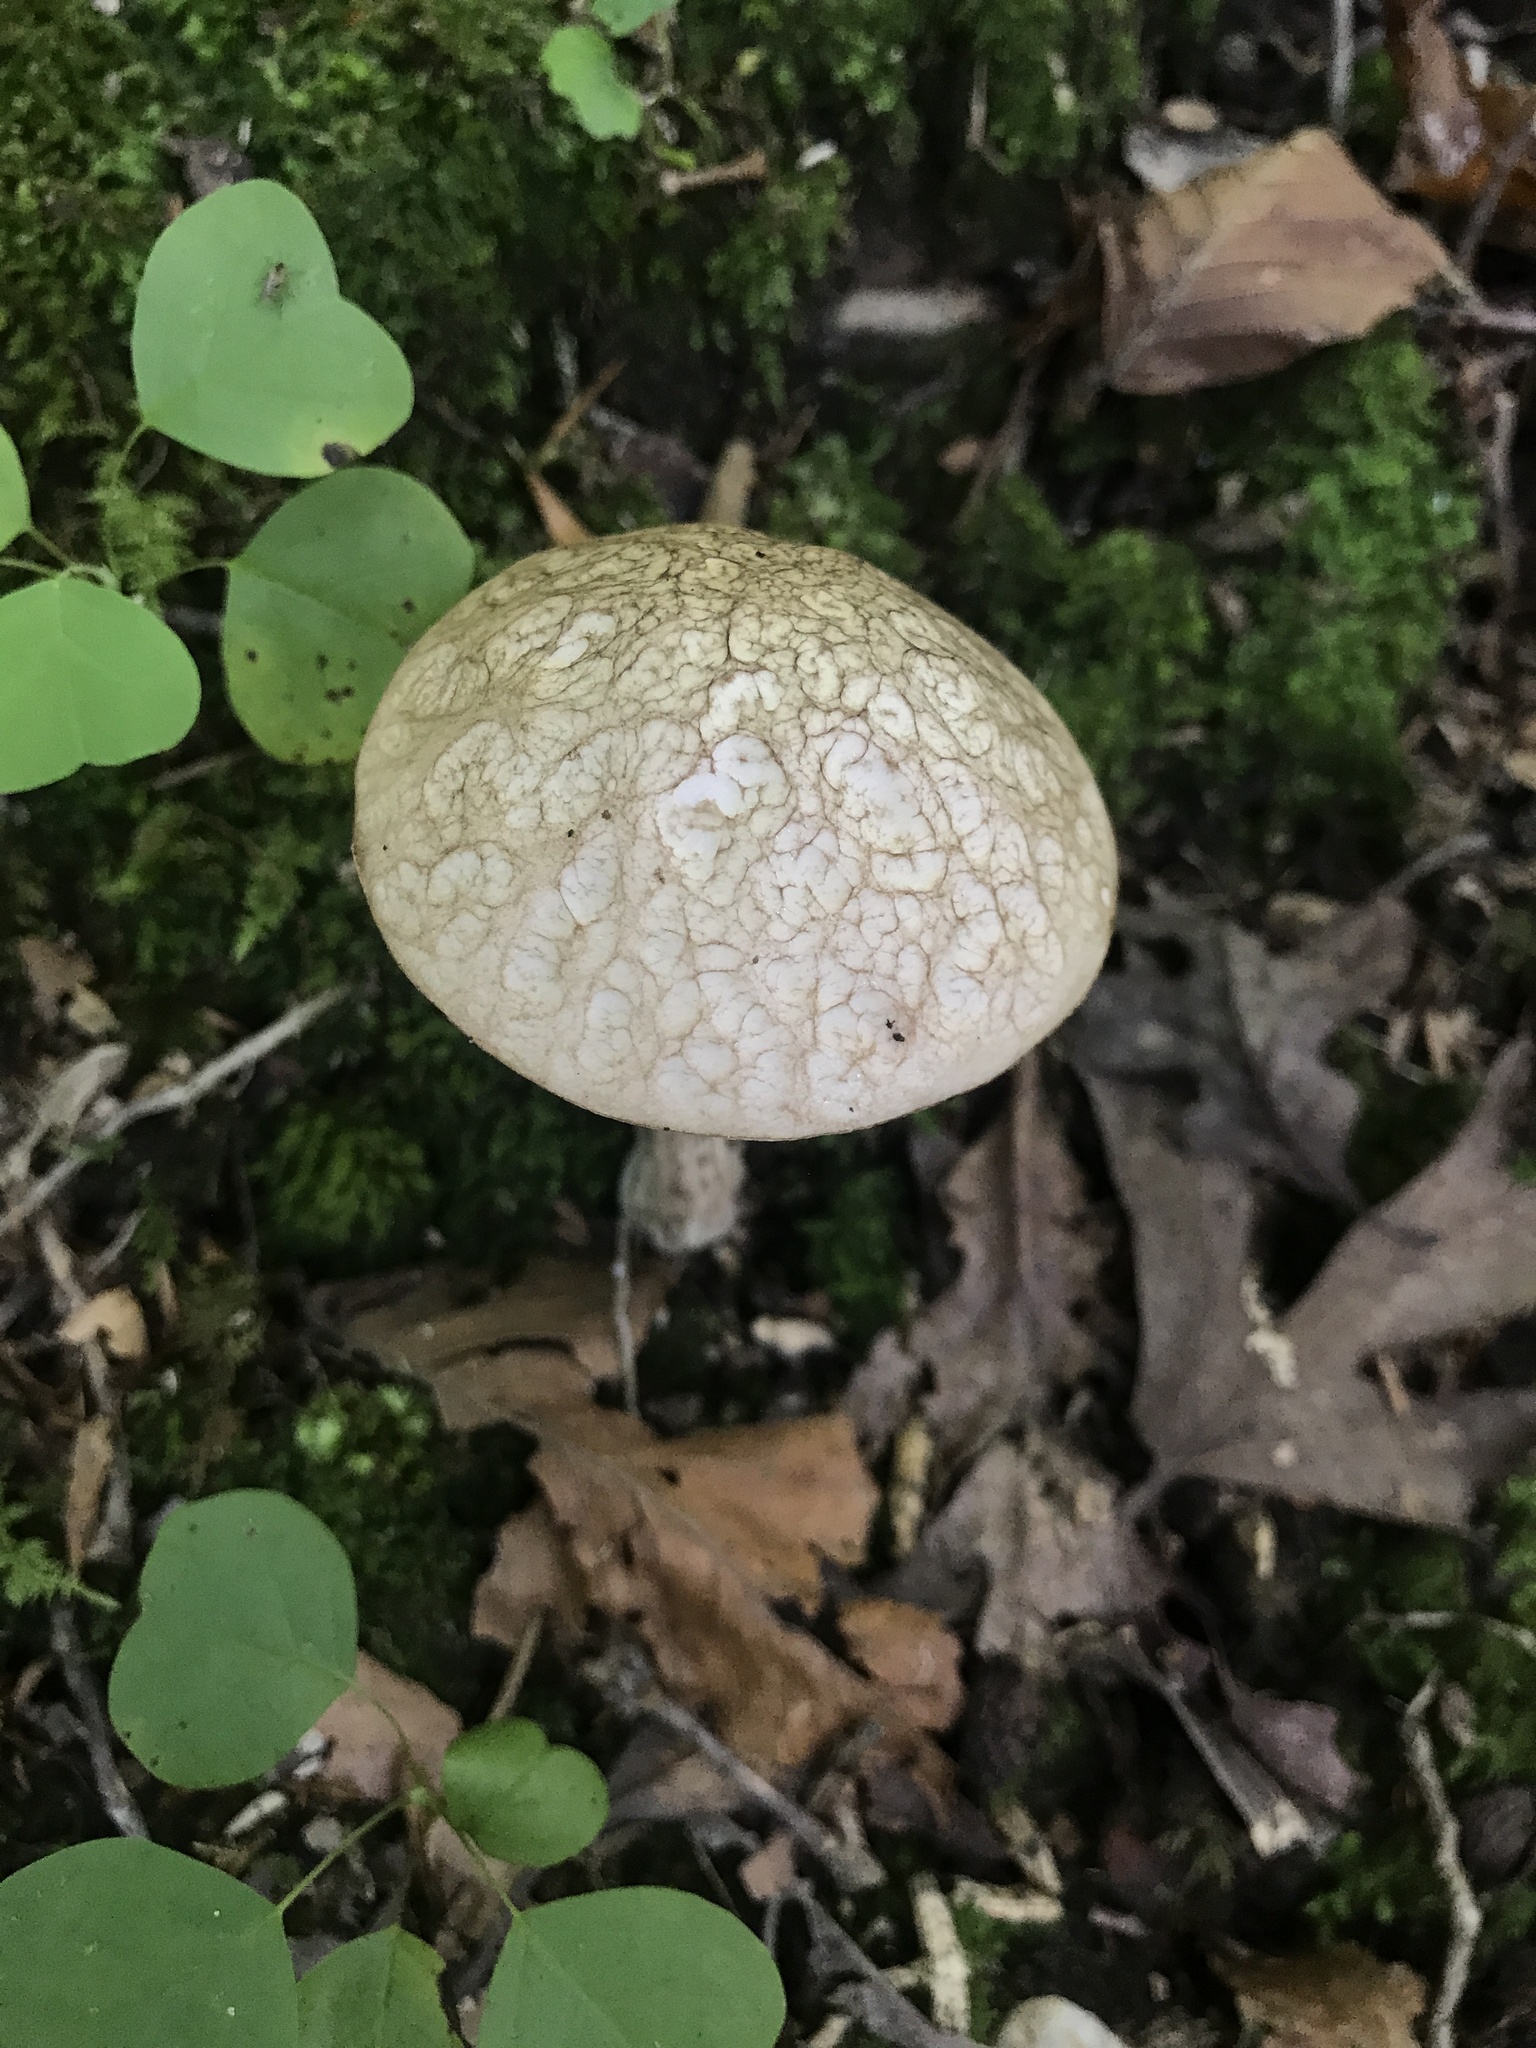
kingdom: Fungi
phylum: Basidiomycota
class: Agaricomycetes
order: Boletales
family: Boletaceae
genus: Leccinellum
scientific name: Leccinellum albellum
